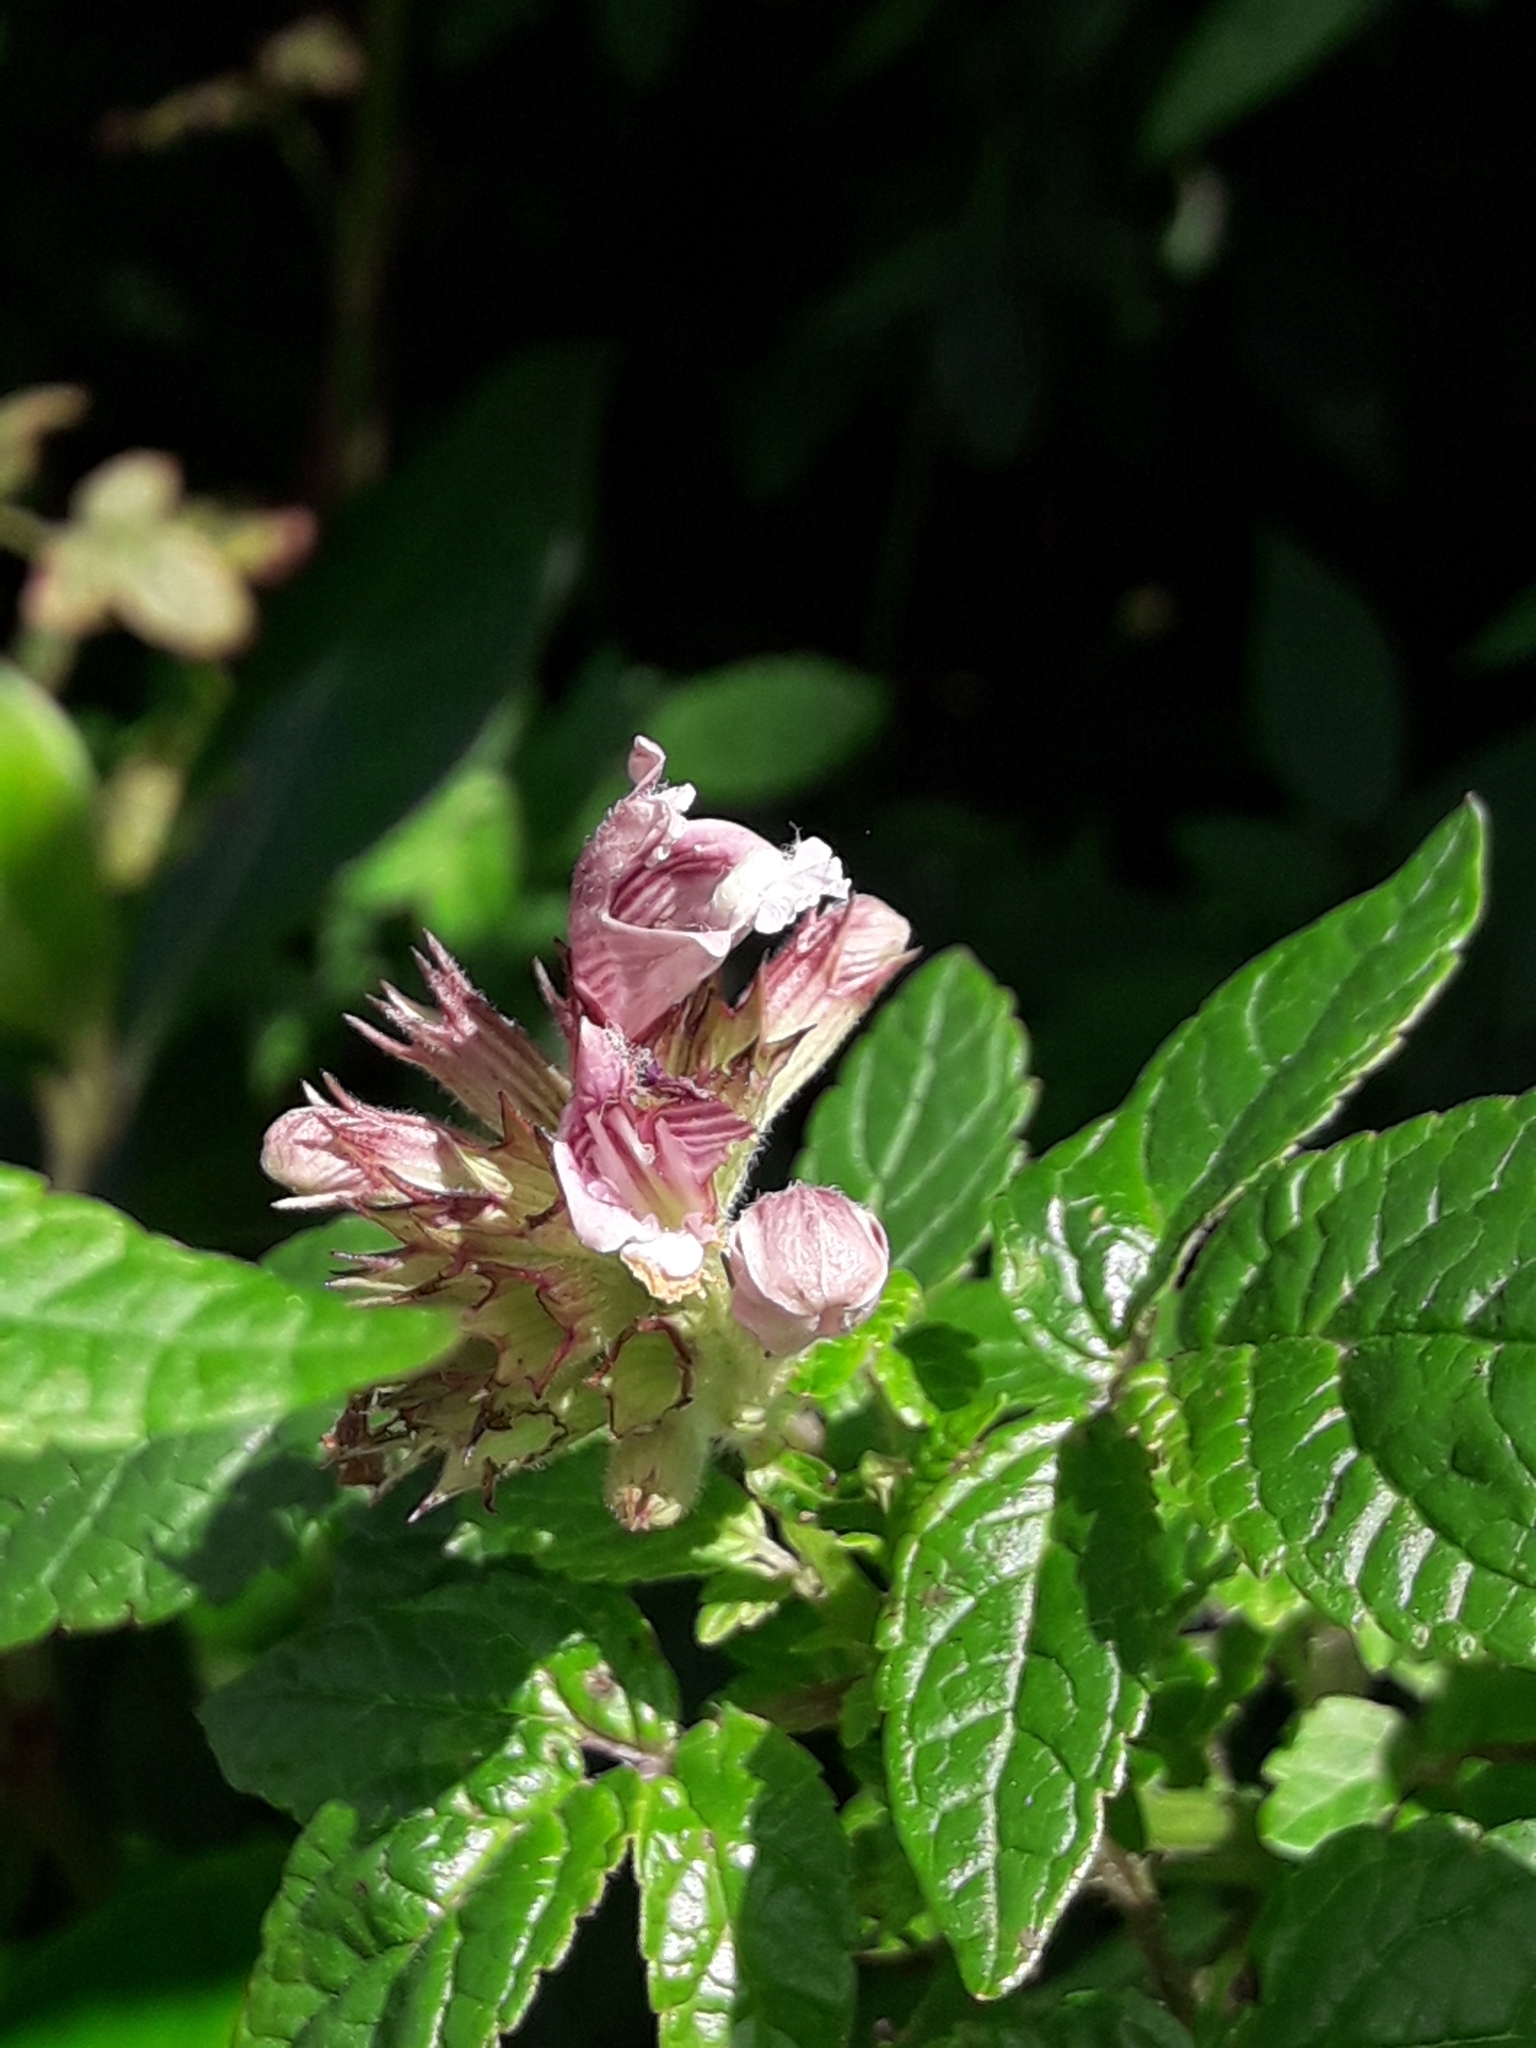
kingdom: Plantae
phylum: Tracheophyta
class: Magnoliopsida
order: Lamiales
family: Lamiaceae
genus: Cedronella
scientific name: Cedronella canariensis
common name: Canary islands balm
